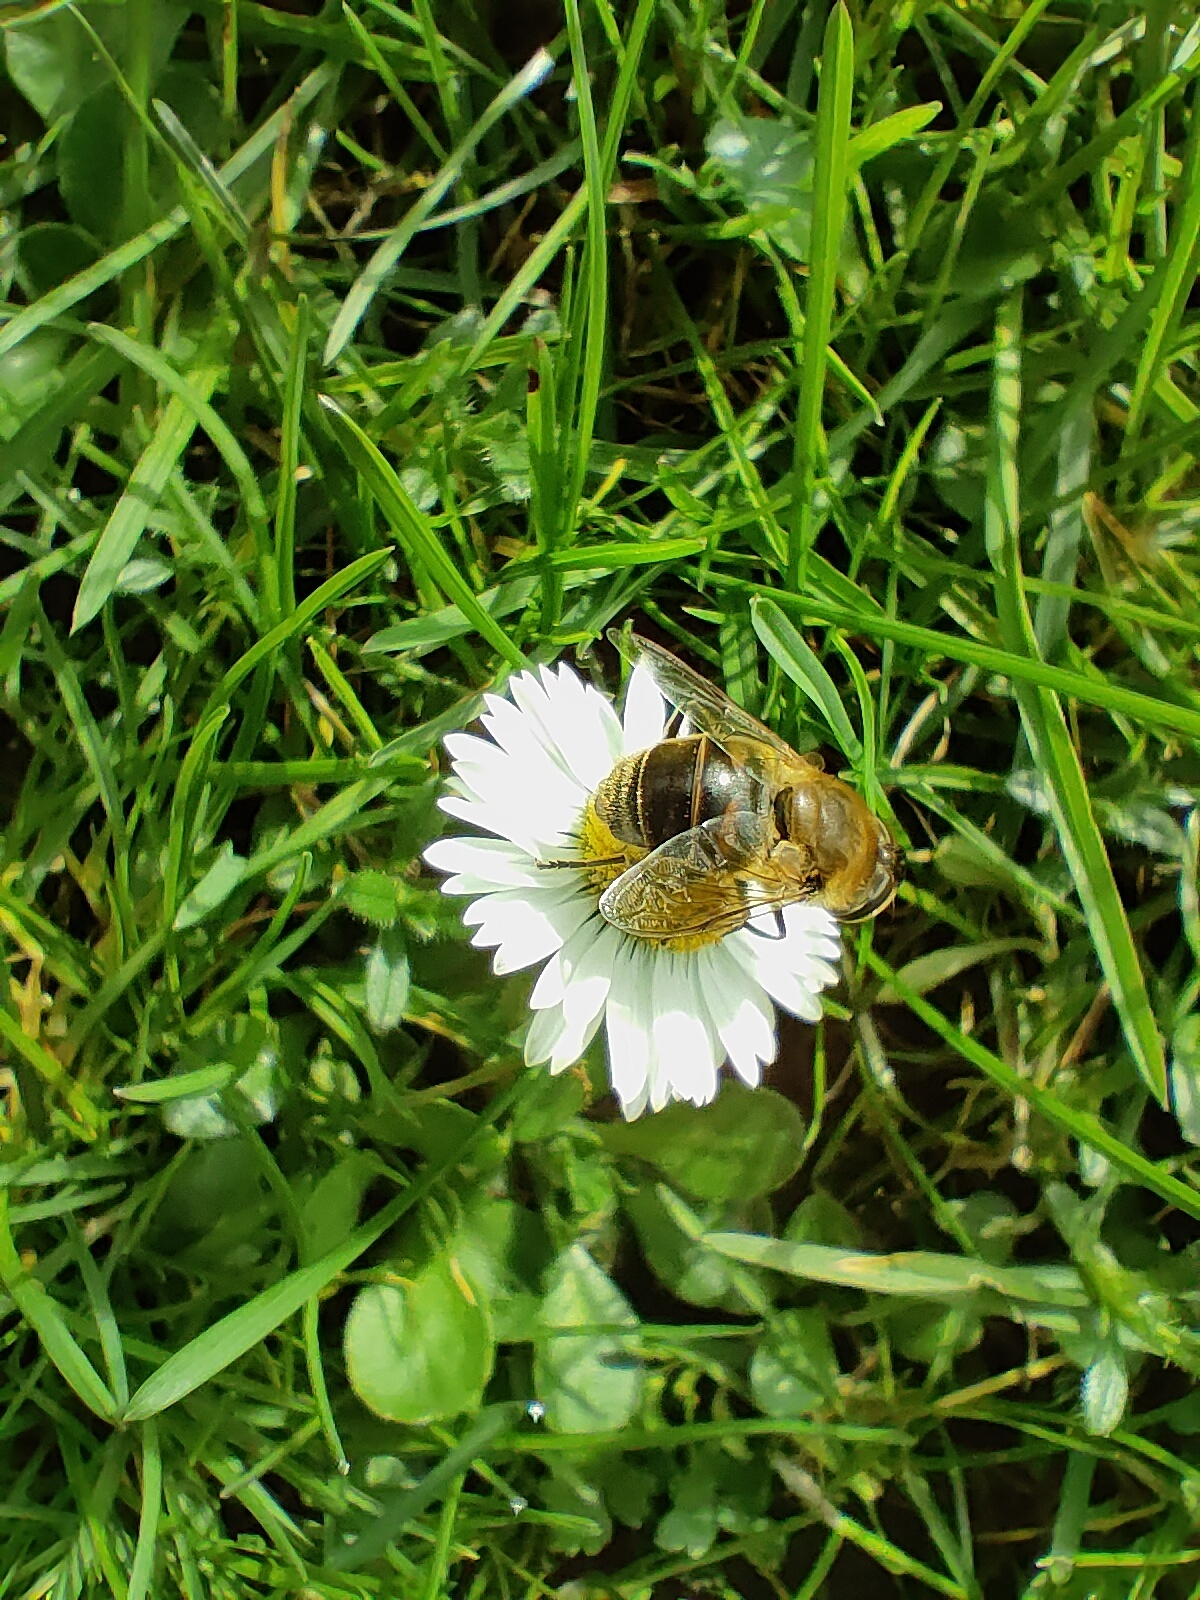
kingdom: Animalia
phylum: Arthropoda
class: Insecta
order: Diptera
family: Syrphidae
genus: Eristalis
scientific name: Eristalis tenax
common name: Drone fly
